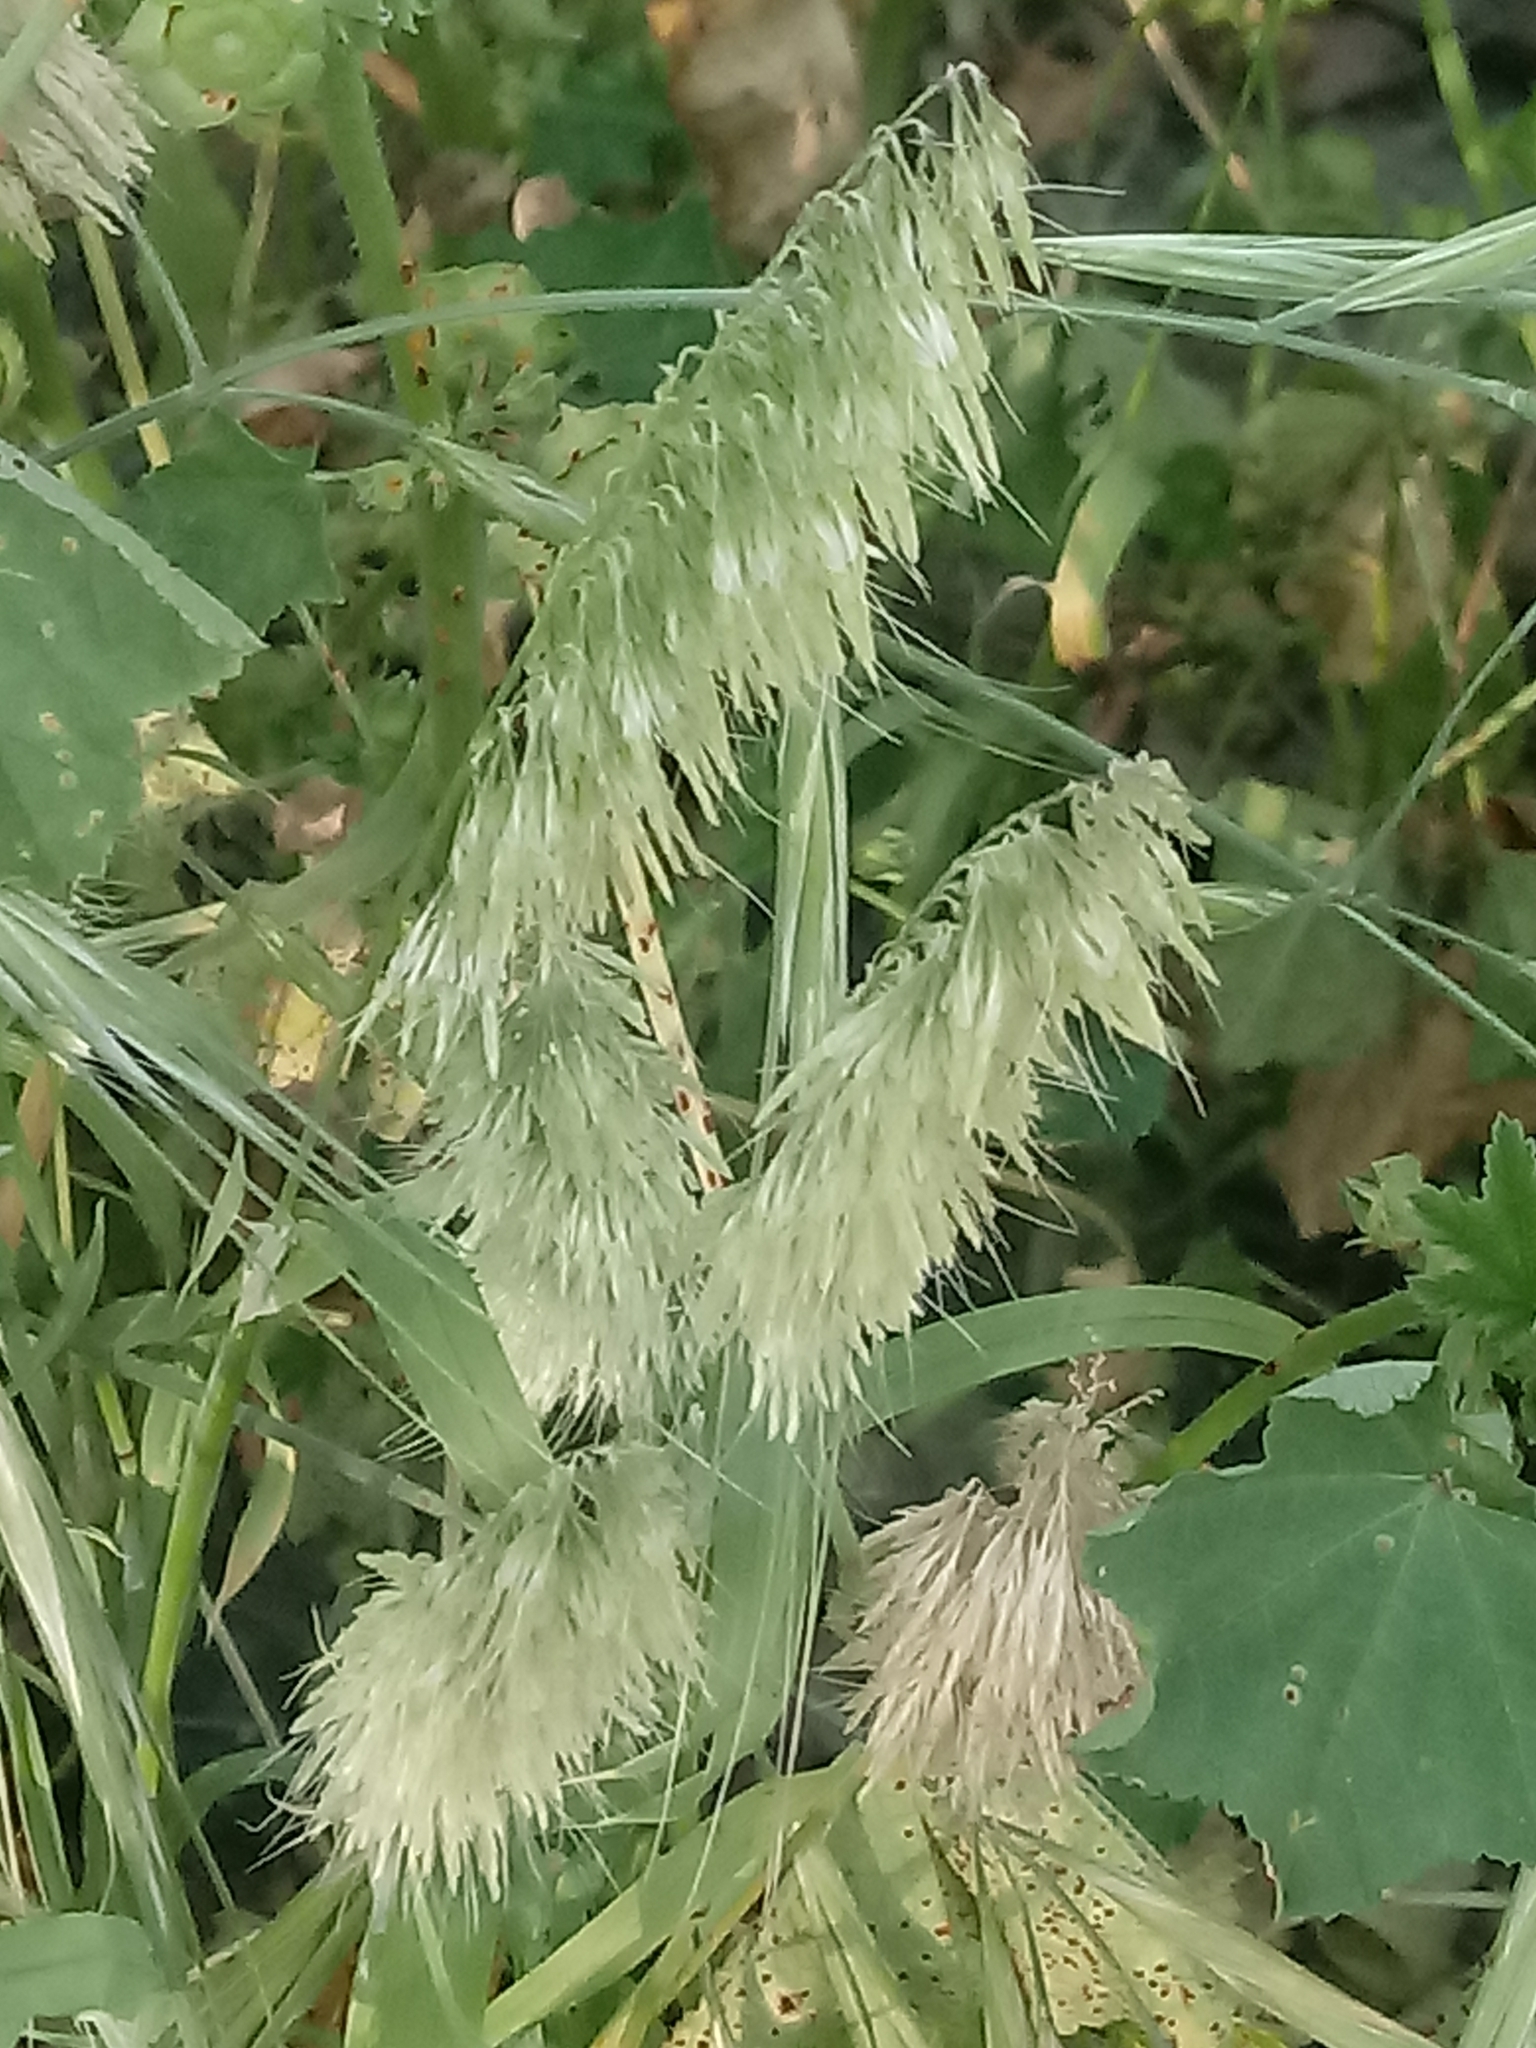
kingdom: Plantae
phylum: Tracheophyta
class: Liliopsida
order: Poales
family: Poaceae
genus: Lamarckia
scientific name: Lamarckia aurea
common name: Golden dog's-tail
